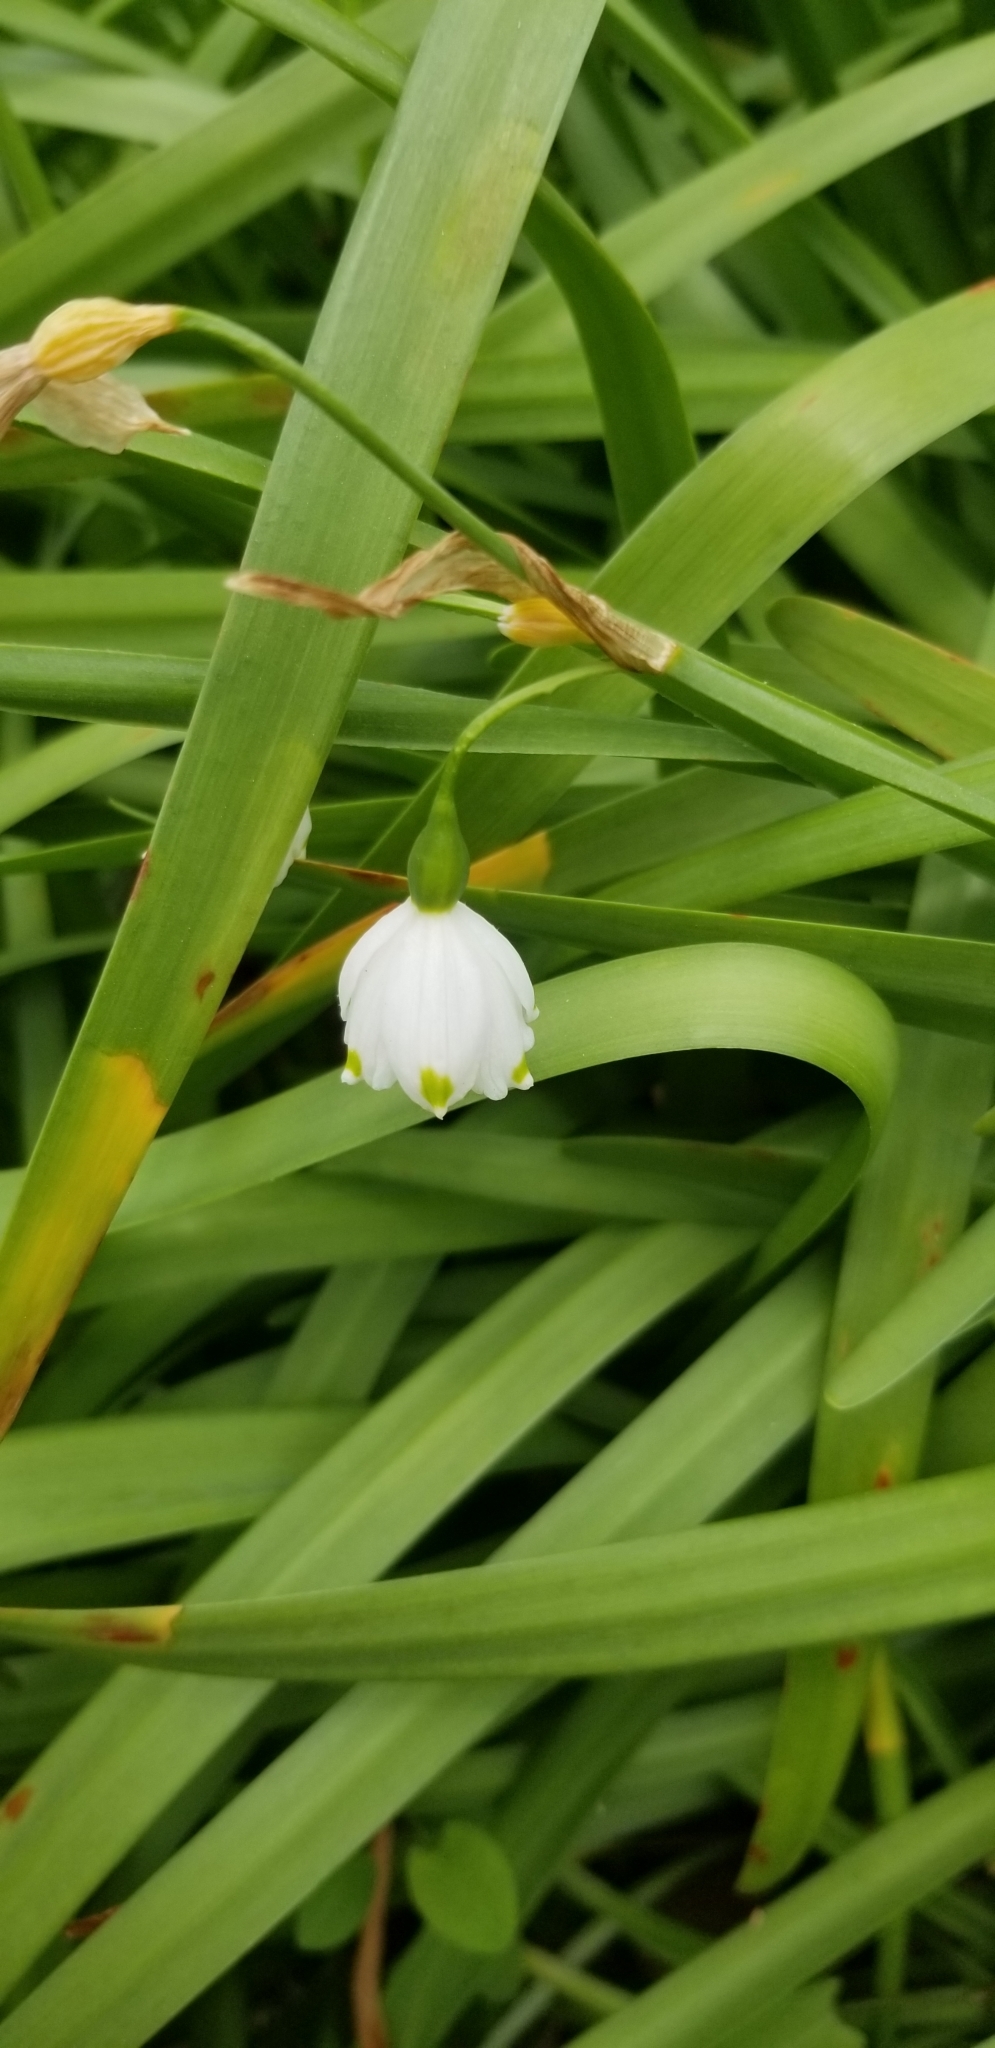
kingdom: Plantae
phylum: Tracheophyta
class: Liliopsida
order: Asparagales
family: Amaryllidaceae
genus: Leucojum
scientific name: Leucojum aestivum
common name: Summer snowflake
